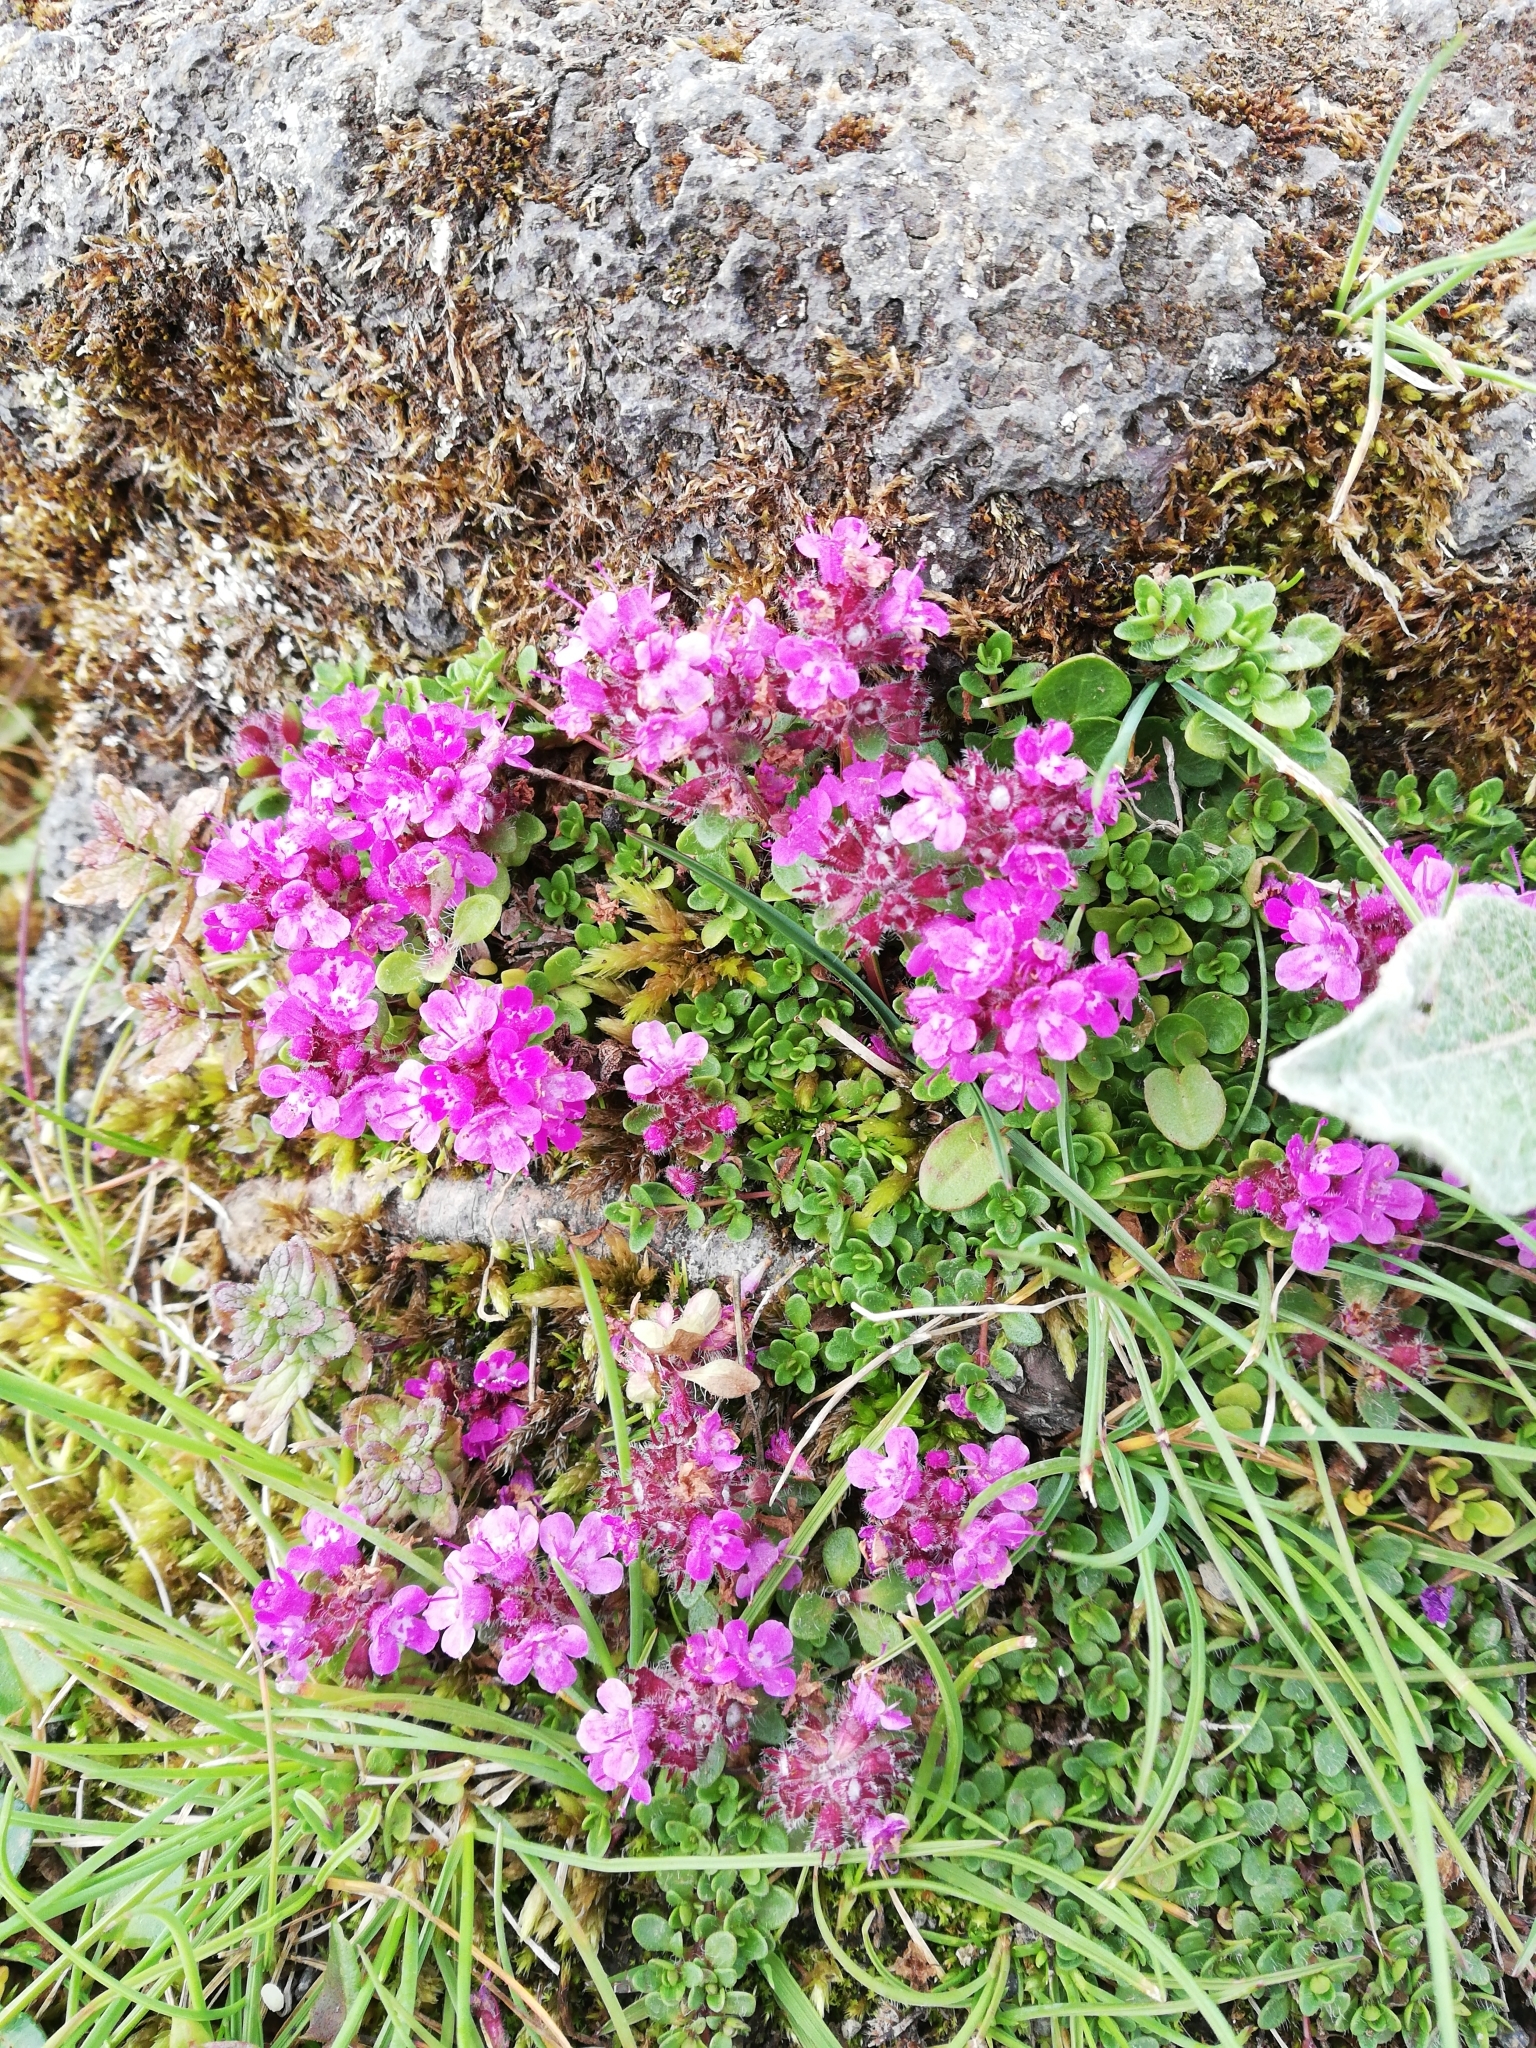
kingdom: Plantae
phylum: Tracheophyta
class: Magnoliopsida
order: Lamiales
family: Lamiaceae
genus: Thymus
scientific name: Thymus praecox
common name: Wild thyme
